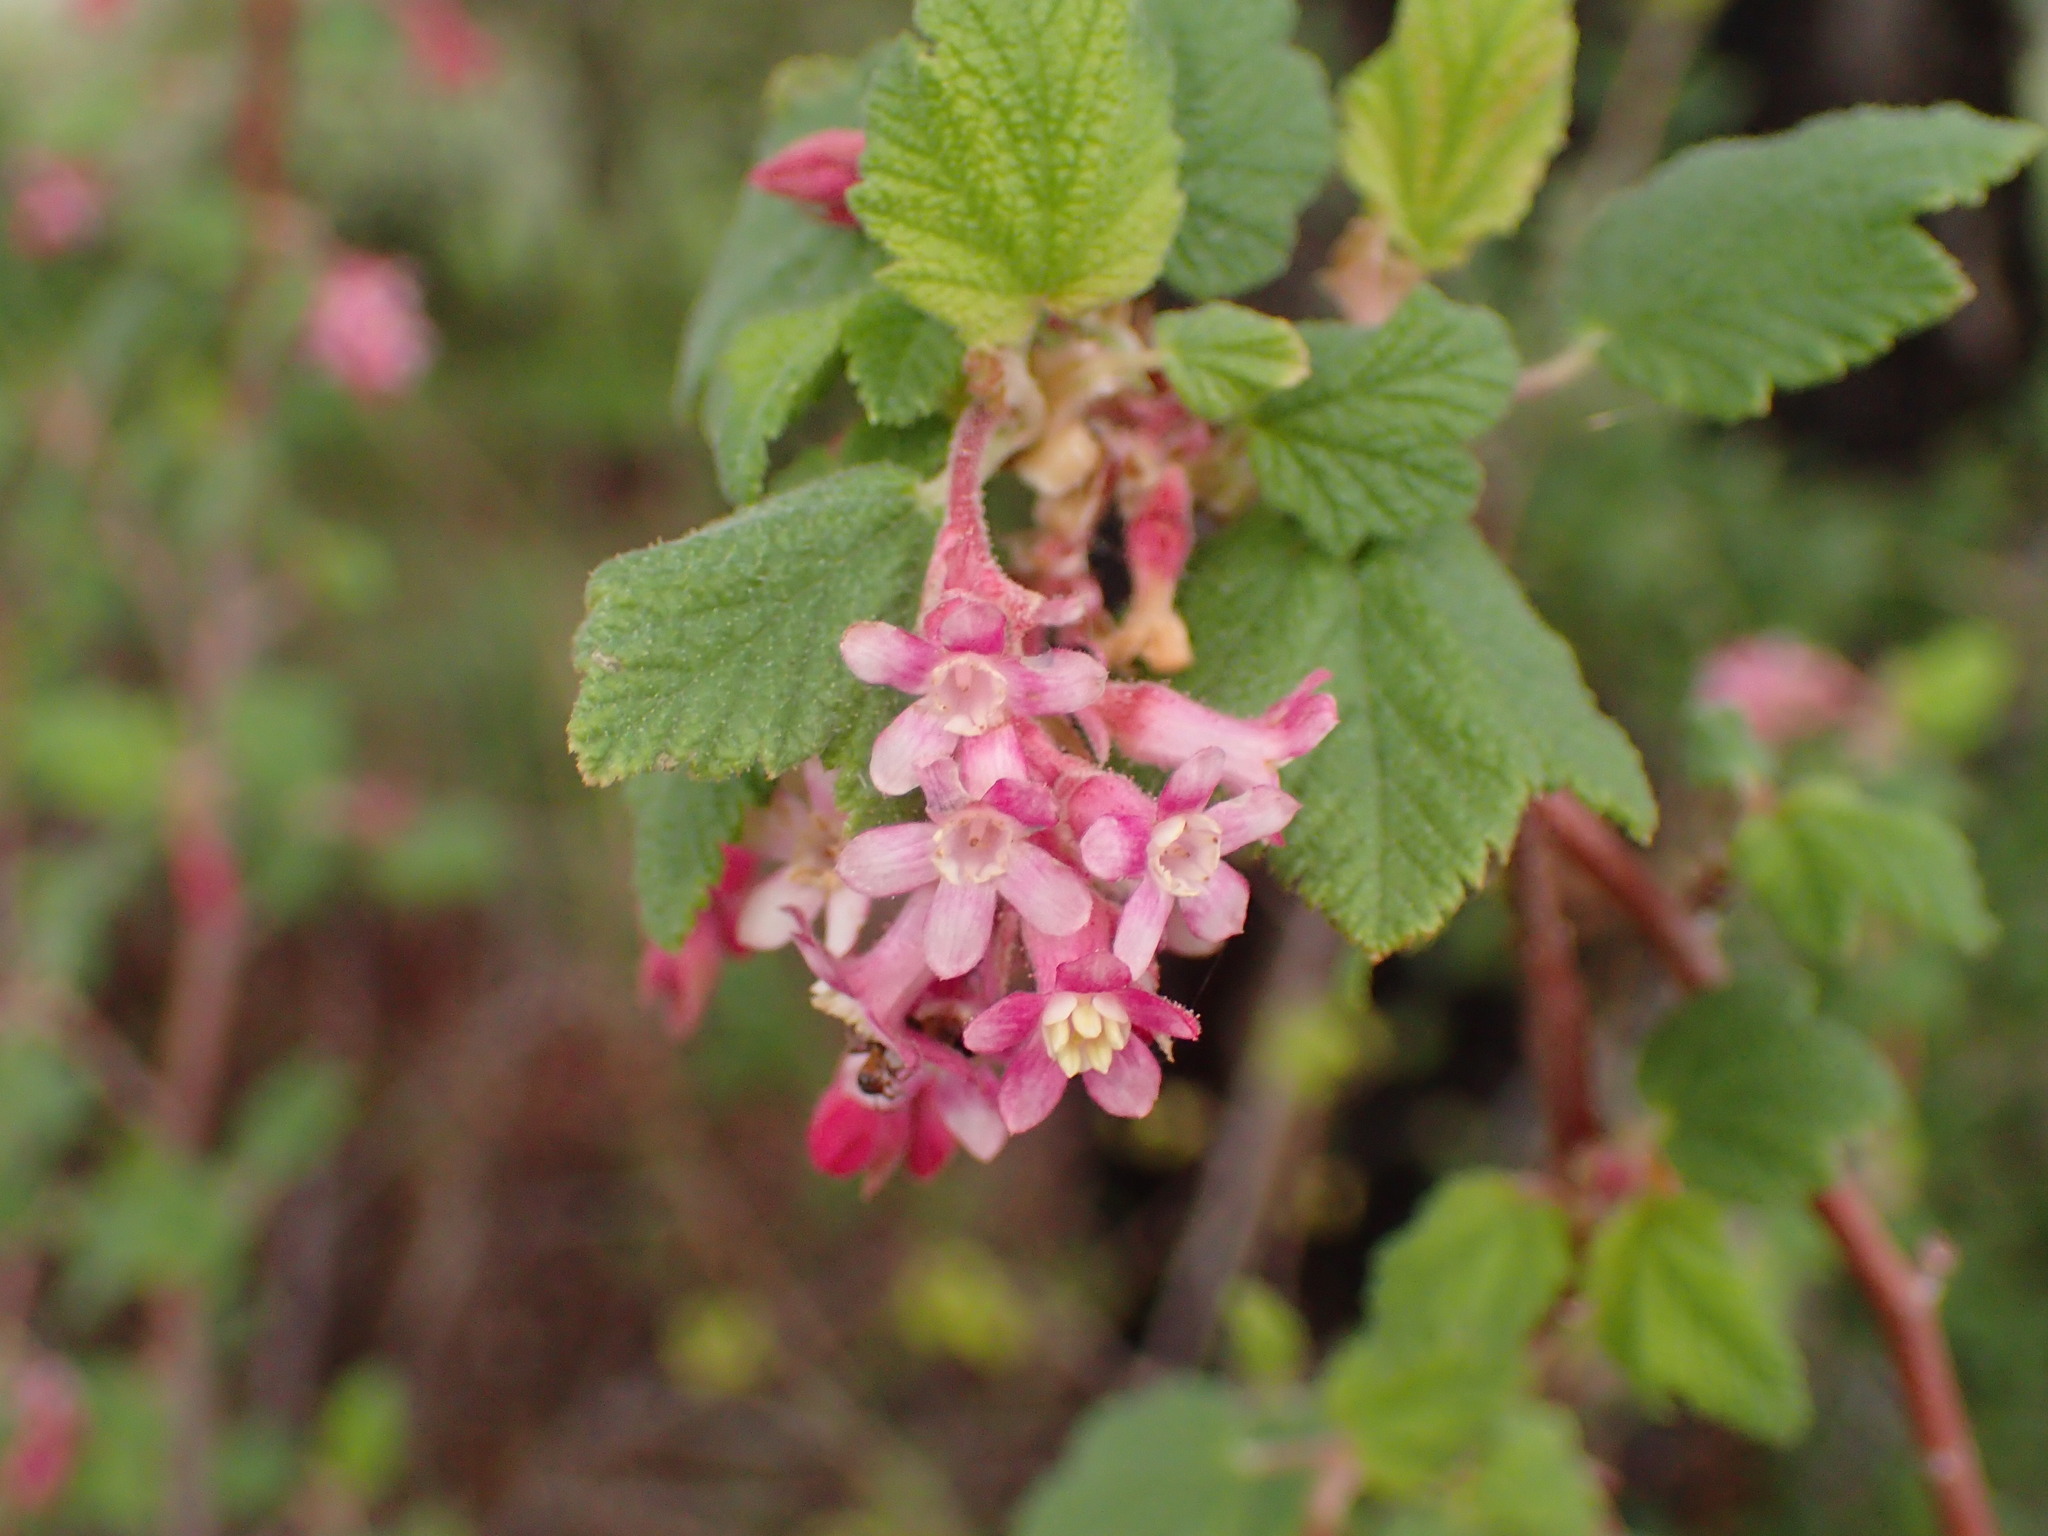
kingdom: Plantae
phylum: Tracheophyta
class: Magnoliopsida
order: Saxifragales
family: Grossulariaceae
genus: Ribes
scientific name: Ribes malvaceum
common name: Chaparral currant
